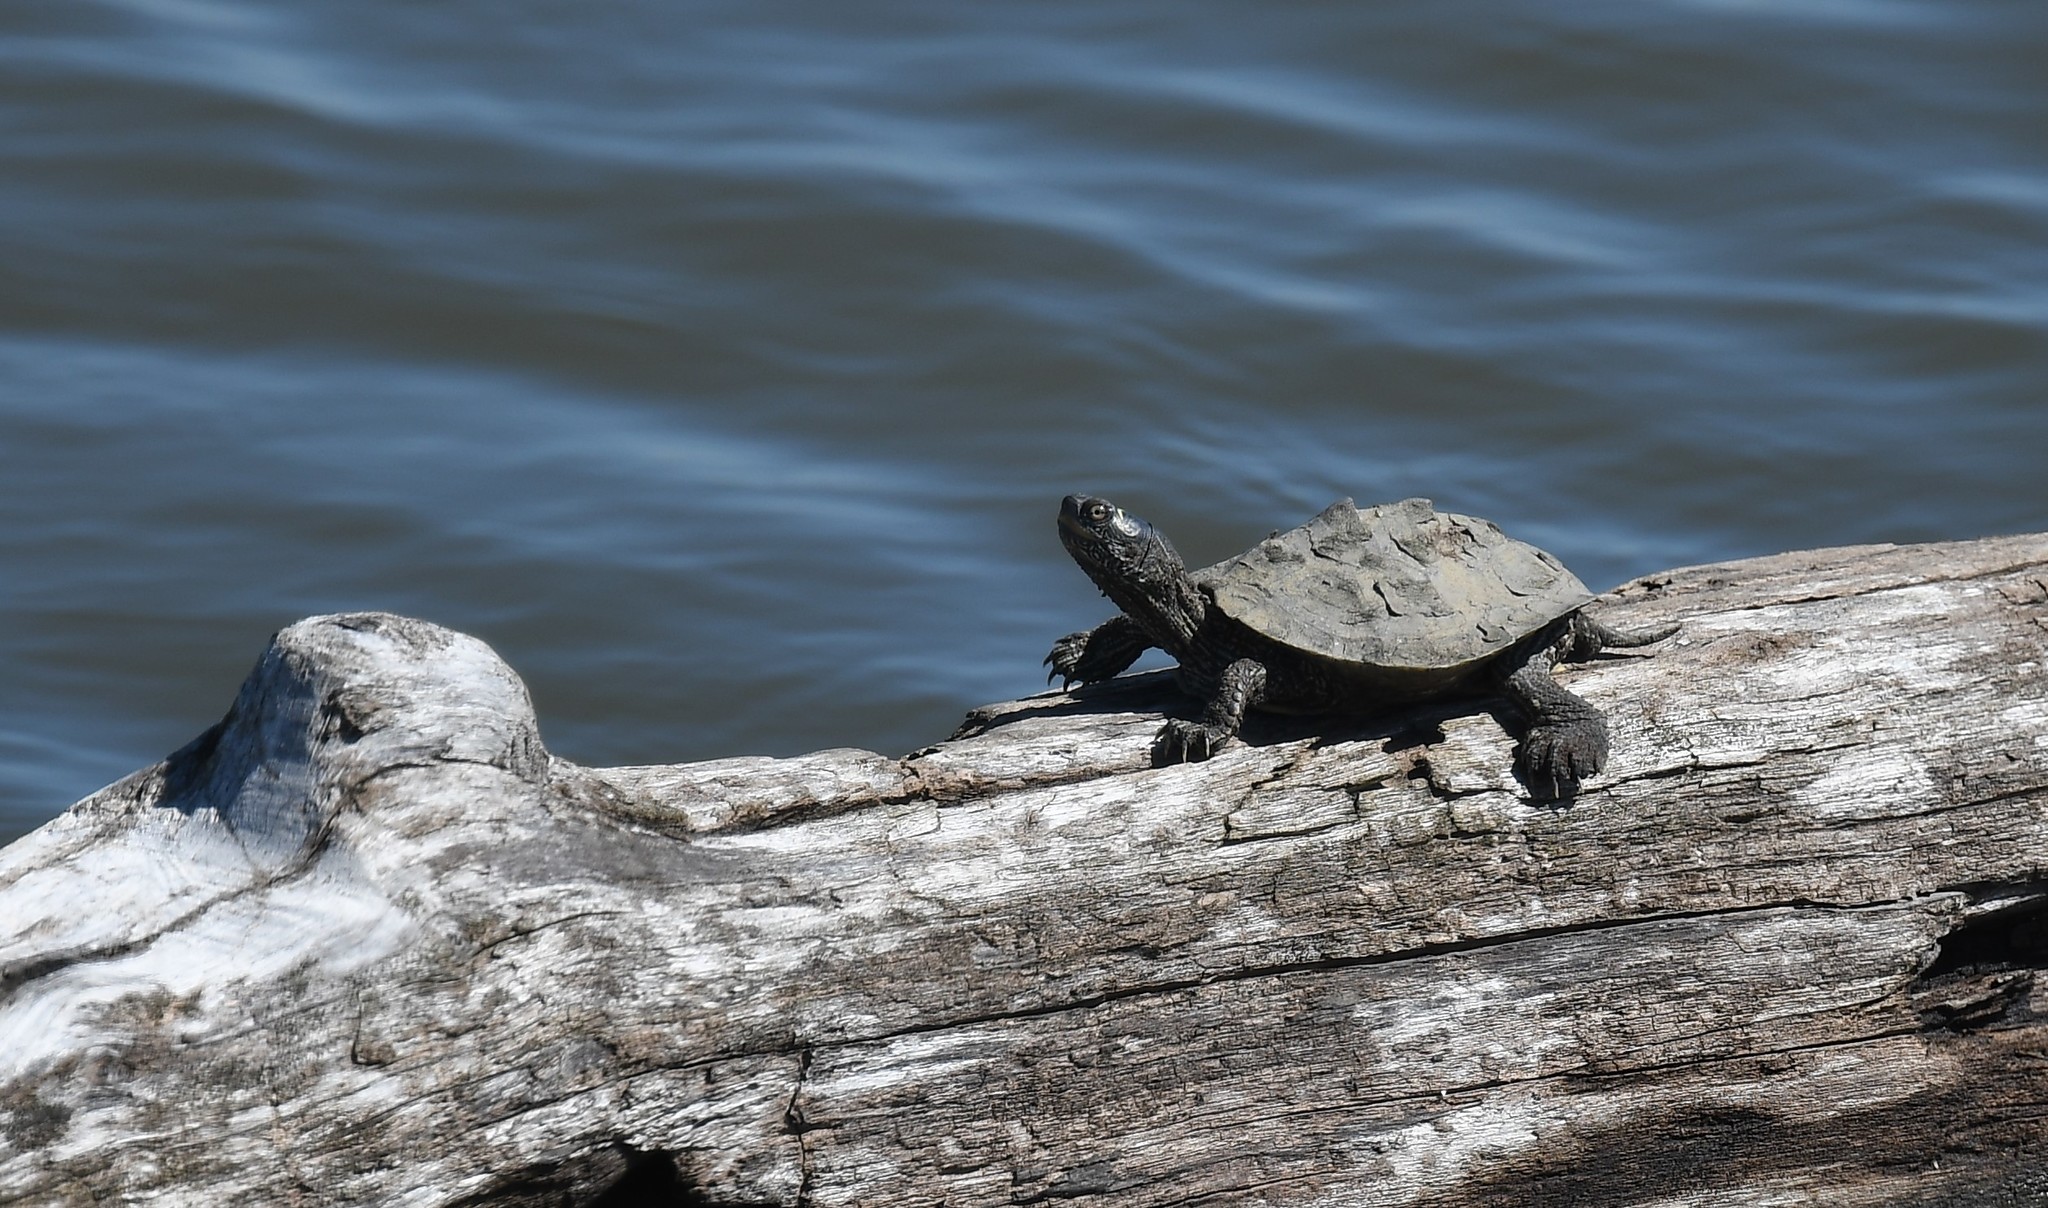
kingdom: Animalia
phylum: Chordata
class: Testudines
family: Emydidae
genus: Graptemys
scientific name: Graptemys pseudogeographica
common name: False map turtle
